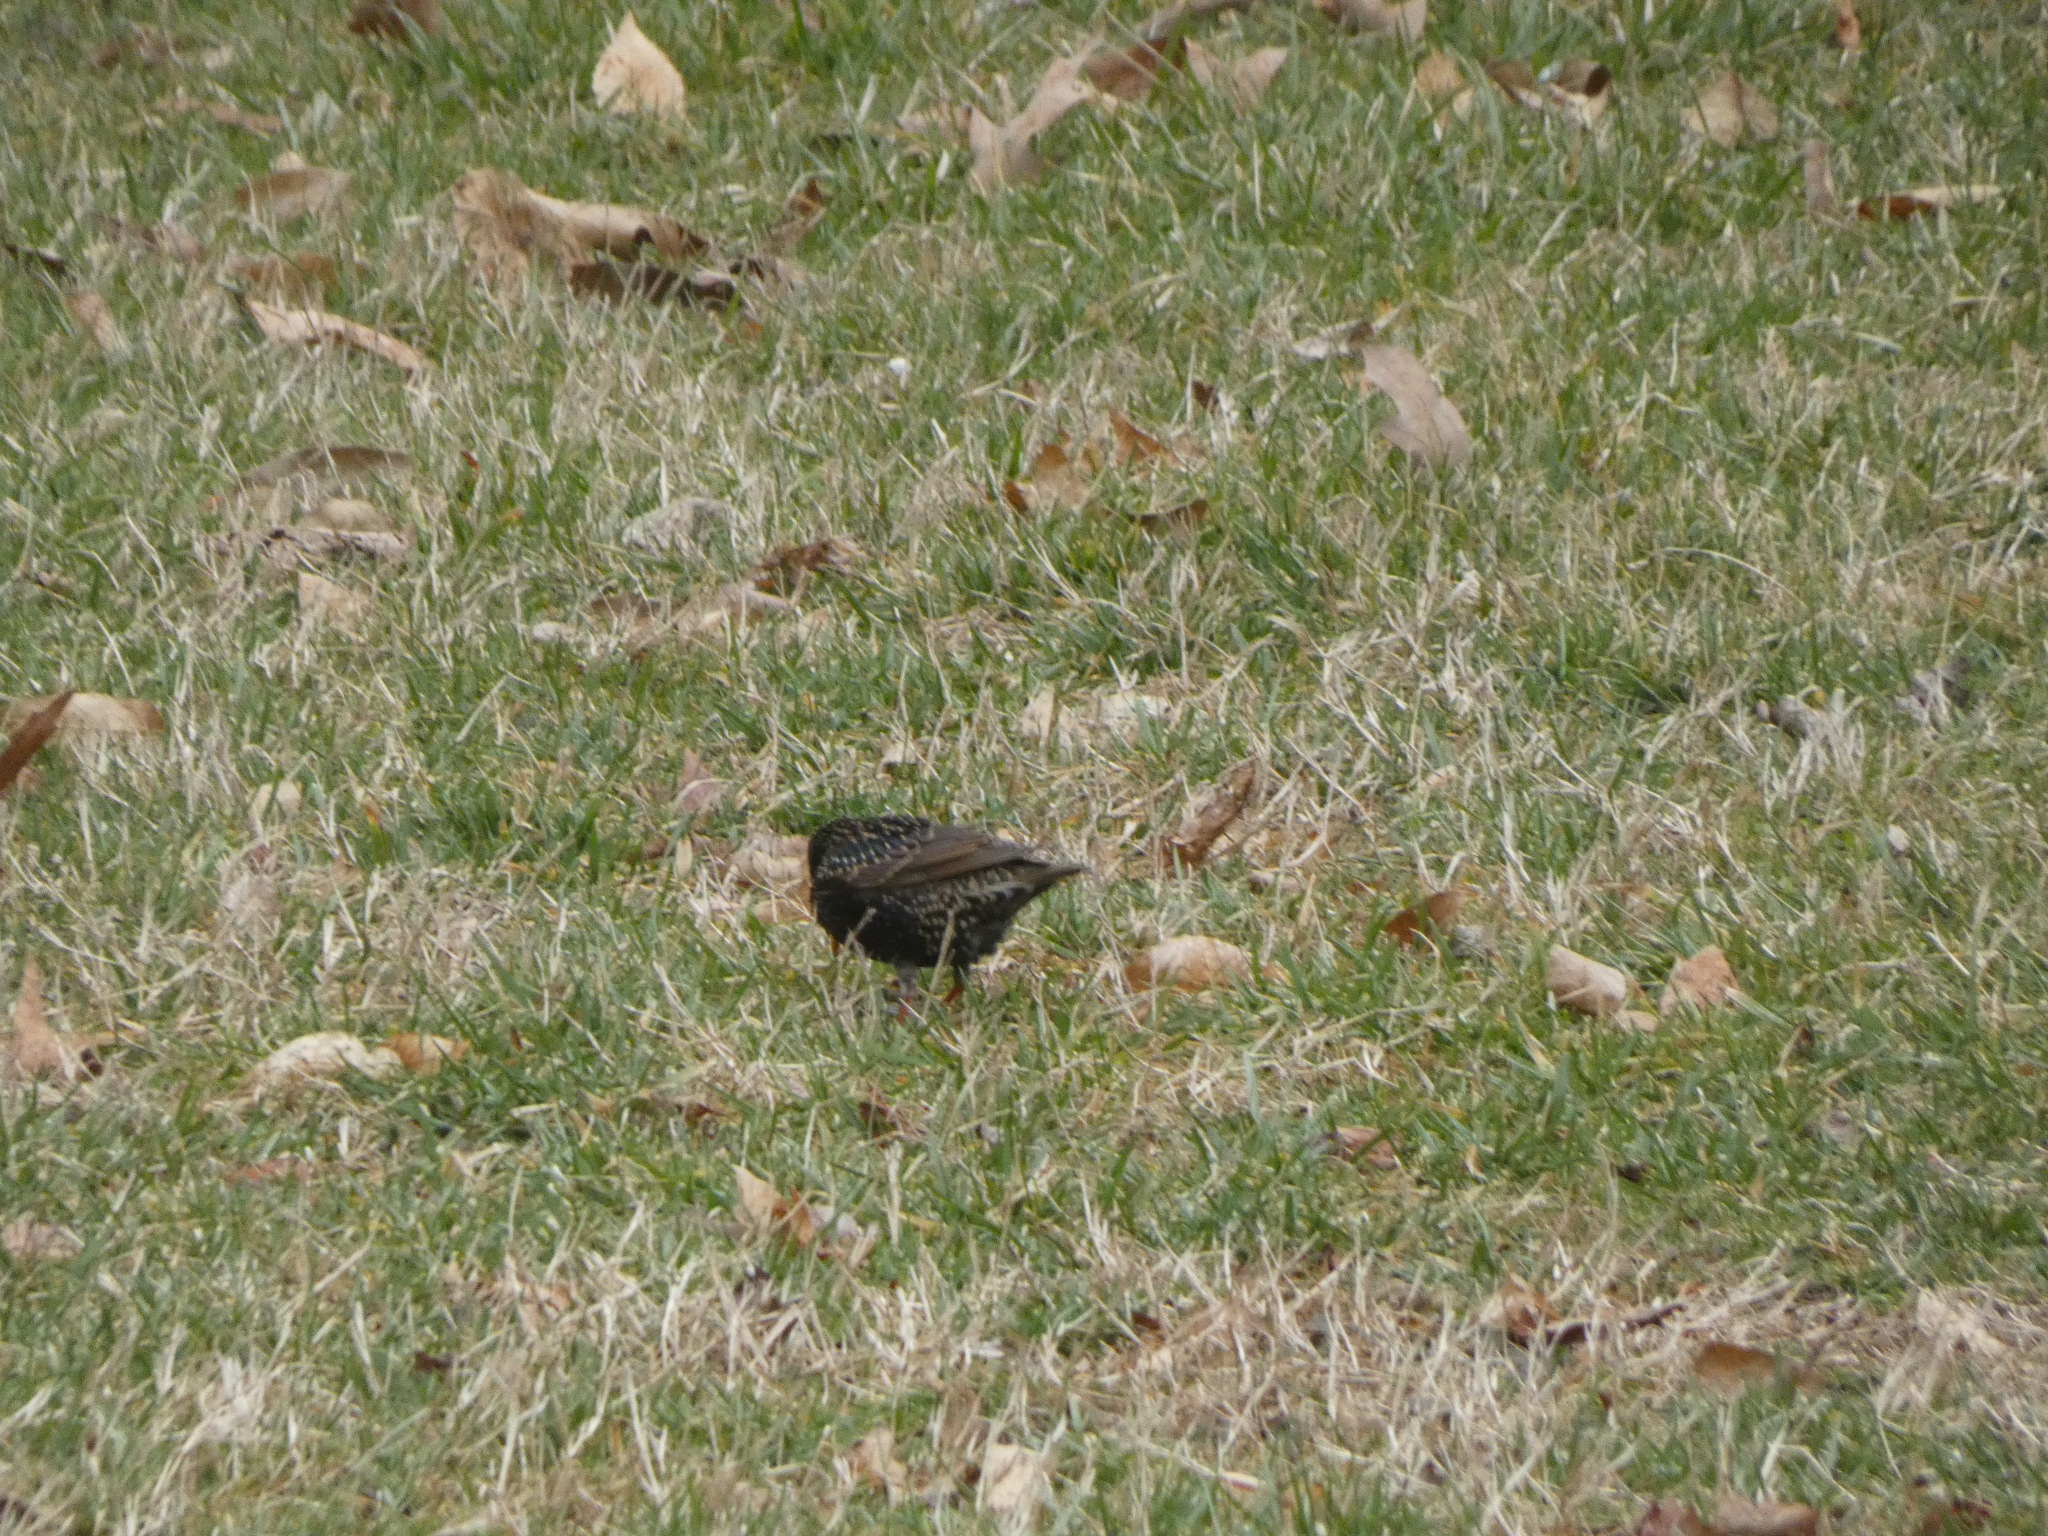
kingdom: Animalia
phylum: Chordata
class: Aves
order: Passeriformes
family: Sturnidae
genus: Sturnus
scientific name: Sturnus vulgaris
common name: Common starling
